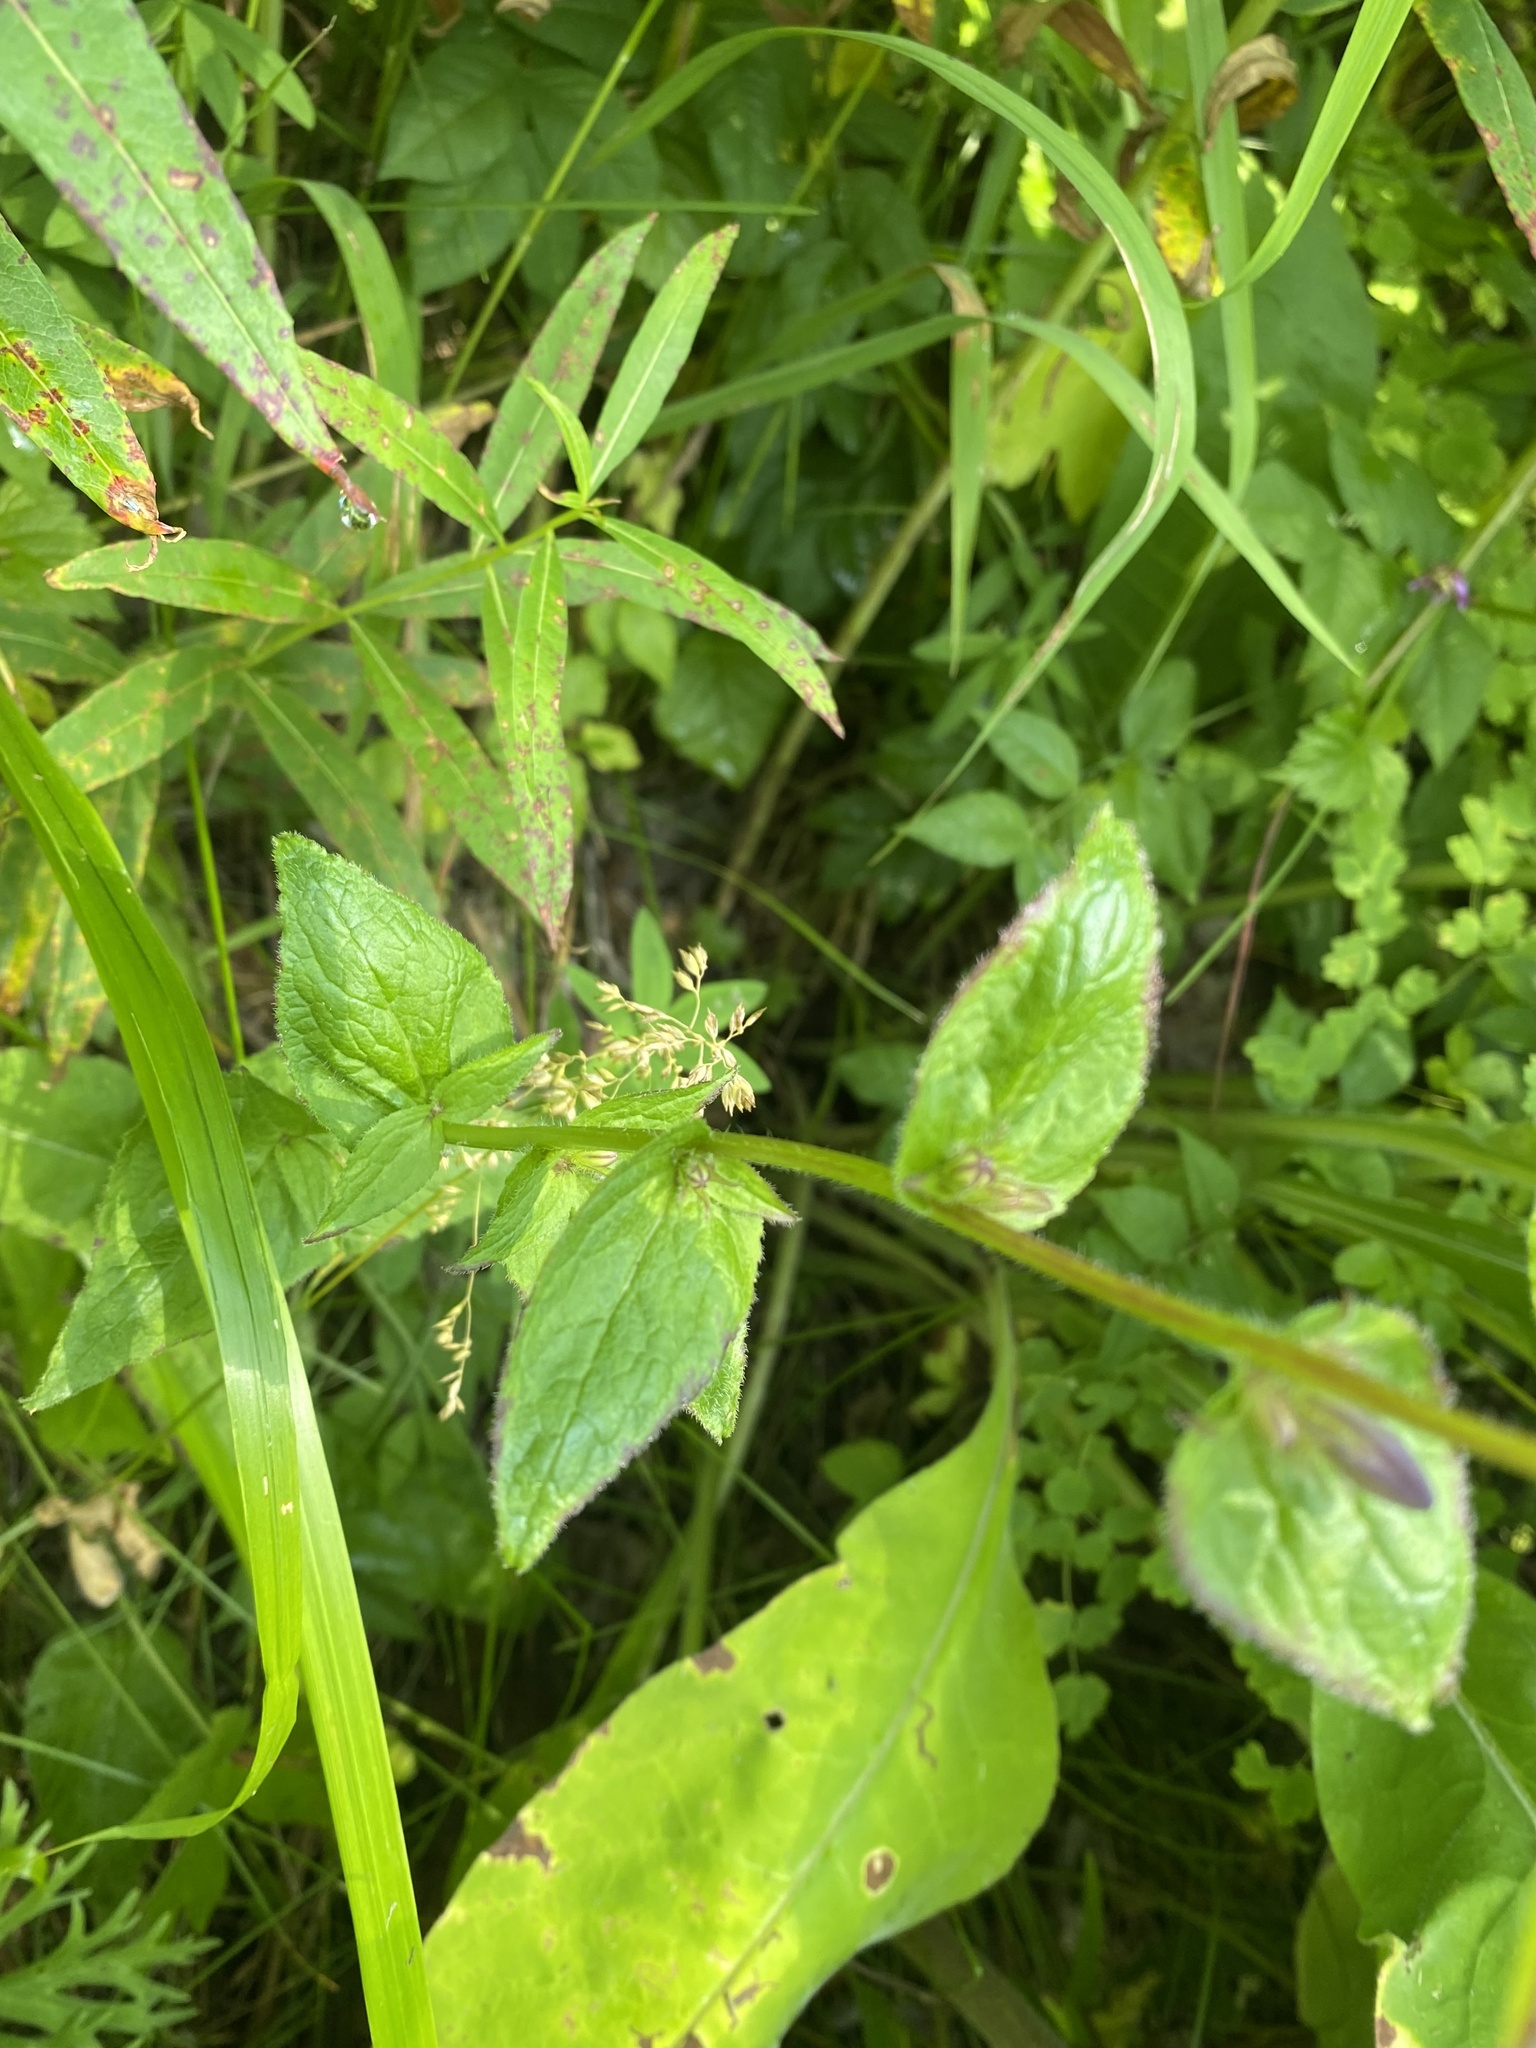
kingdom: Plantae
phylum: Tracheophyta
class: Magnoliopsida
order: Asterales
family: Campanulaceae
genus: Campanula
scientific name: Campanula glomerata
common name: Clustered bellflower
